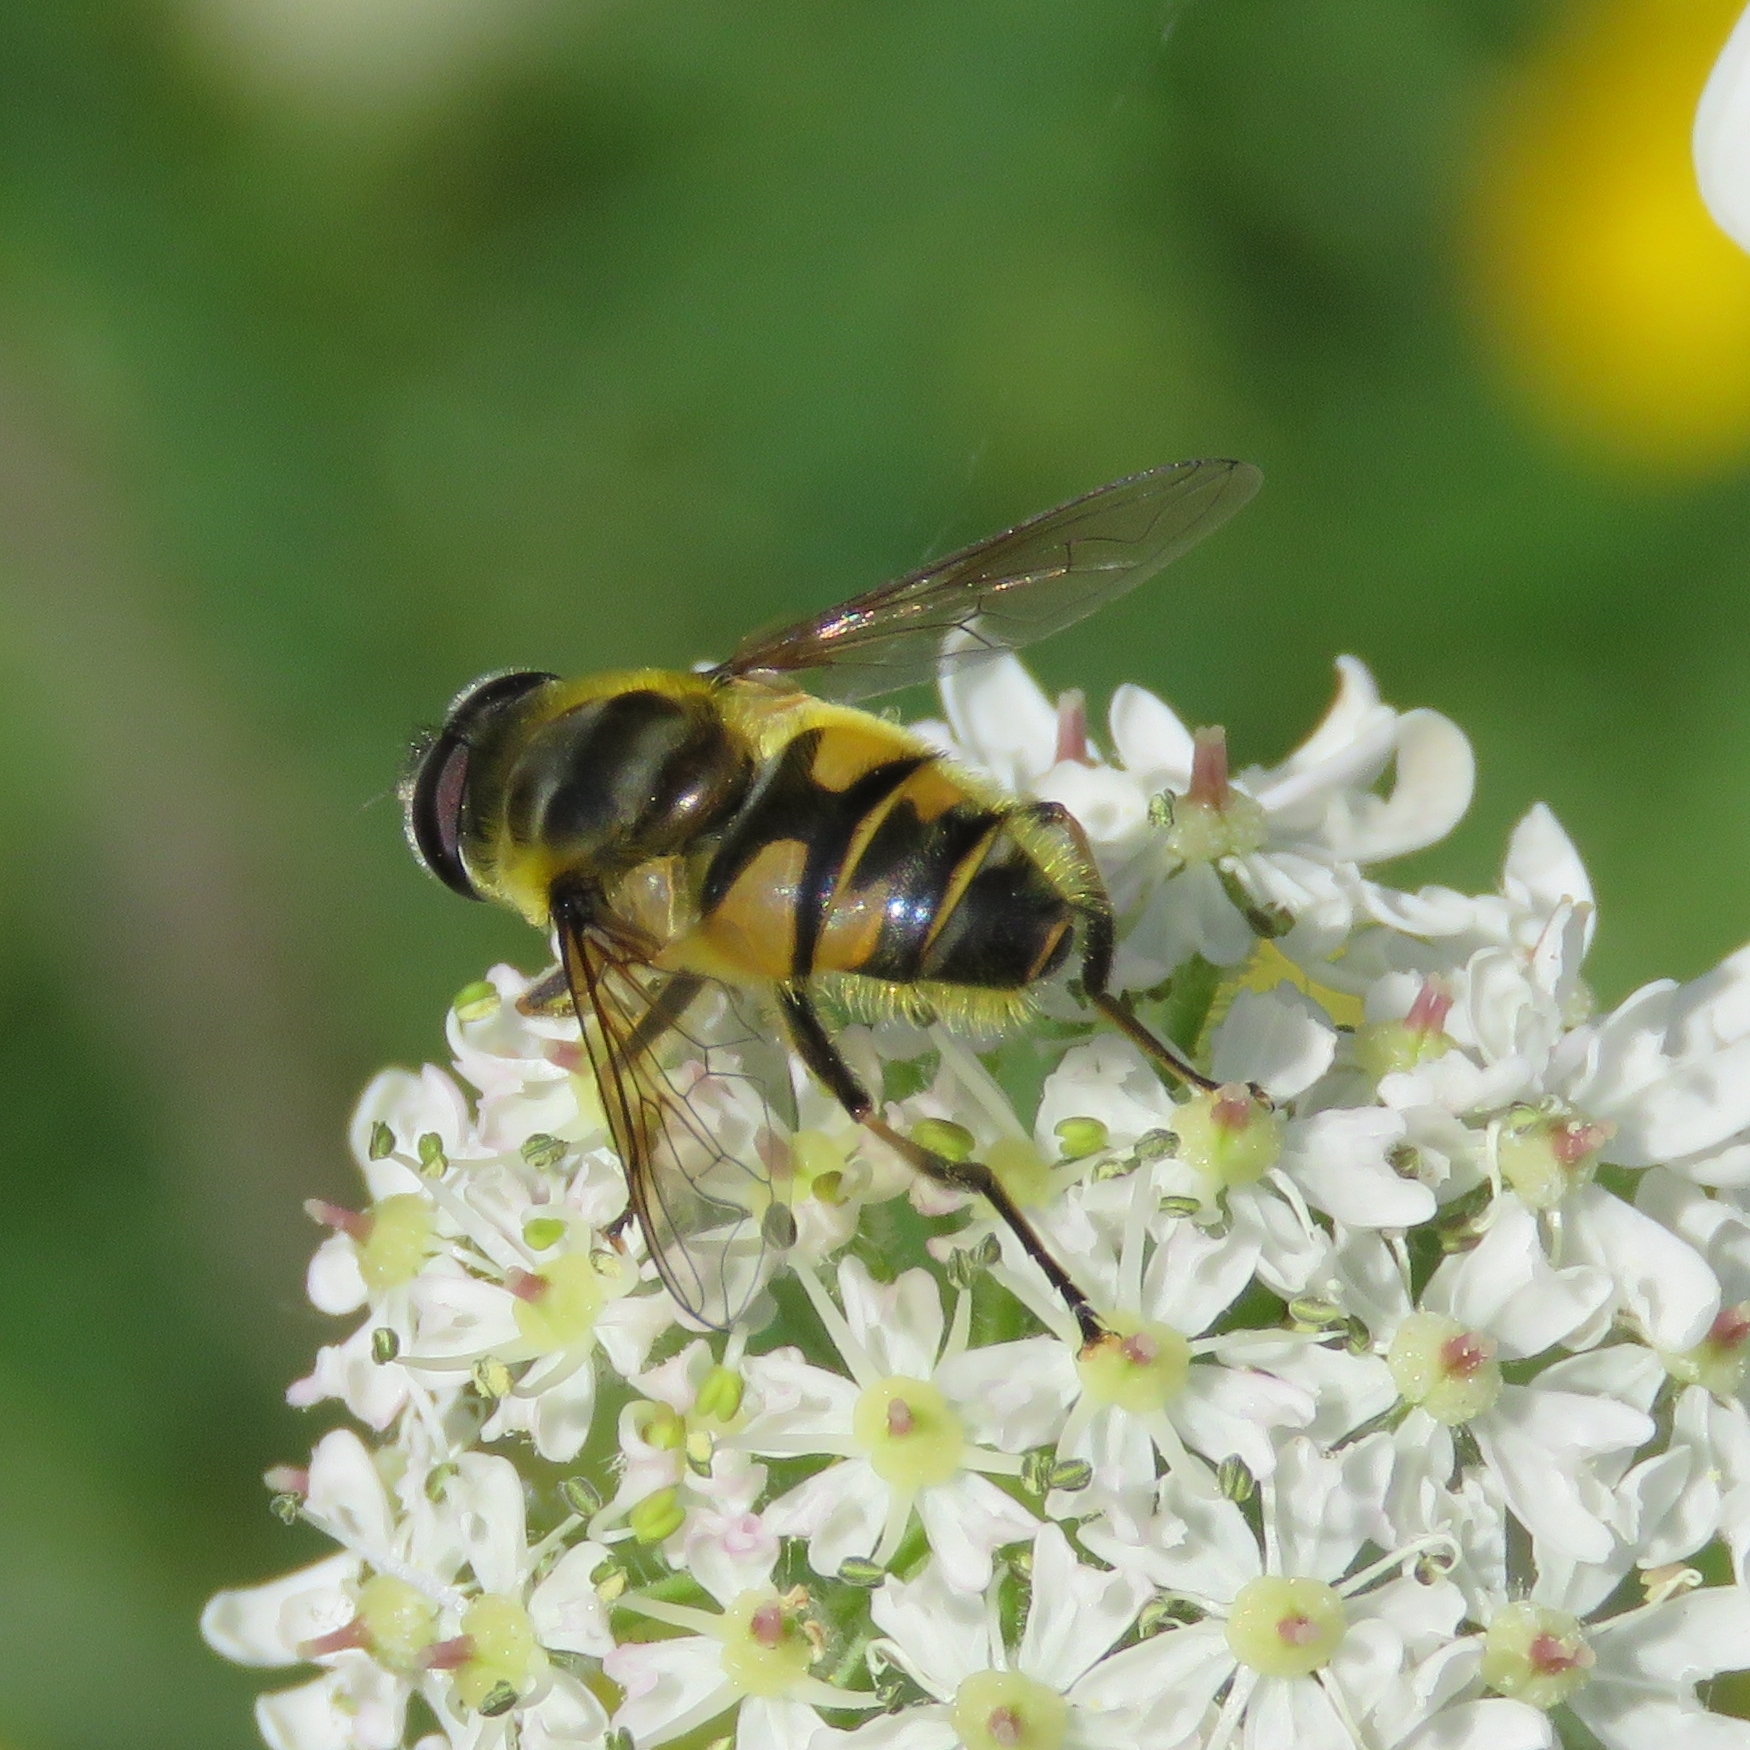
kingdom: Animalia
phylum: Arthropoda
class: Insecta
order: Diptera
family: Syrphidae
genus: Myathropa
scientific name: Myathropa florea
